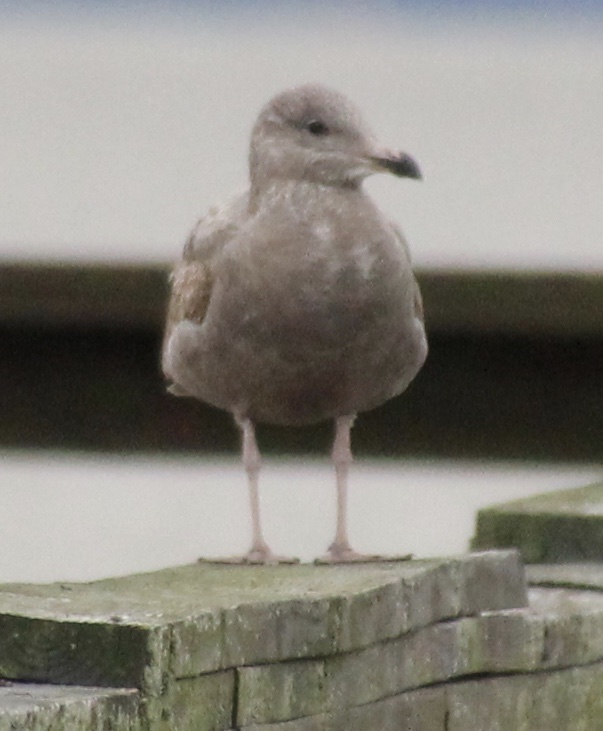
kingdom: Animalia
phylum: Chordata
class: Aves
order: Charadriiformes
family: Laridae
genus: Larus
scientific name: Larus argentatus
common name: Herring gull
